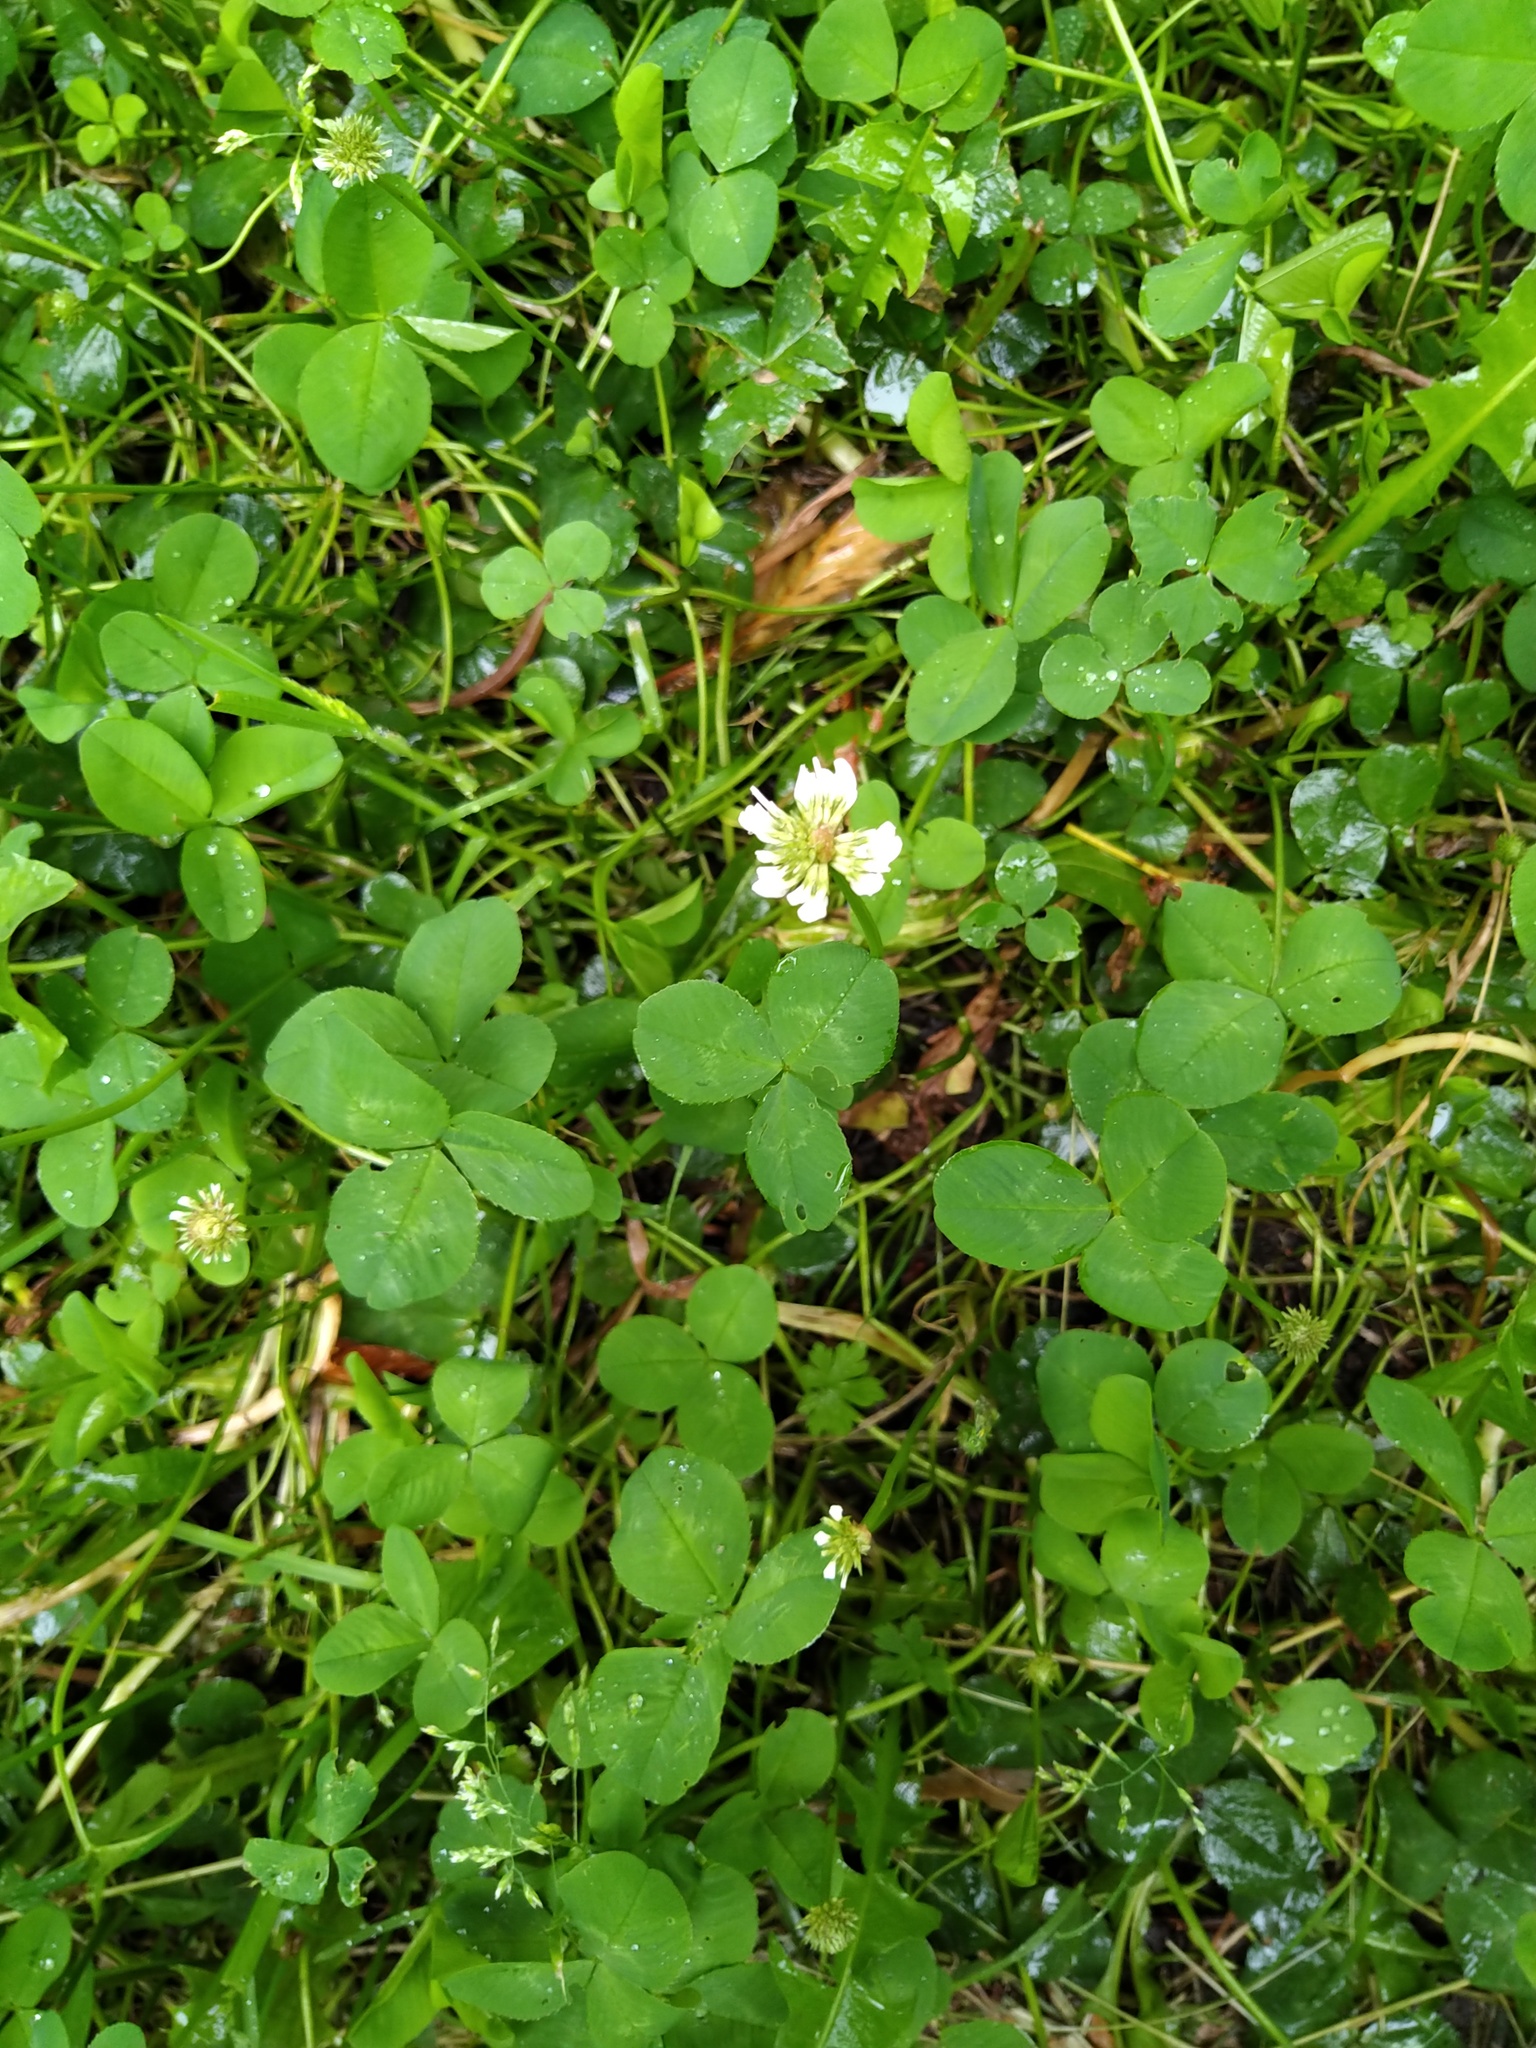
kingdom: Plantae
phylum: Tracheophyta
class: Magnoliopsida
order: Fabales
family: Fabaceae
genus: Trifolium
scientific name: Trifolium repens
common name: White clover
